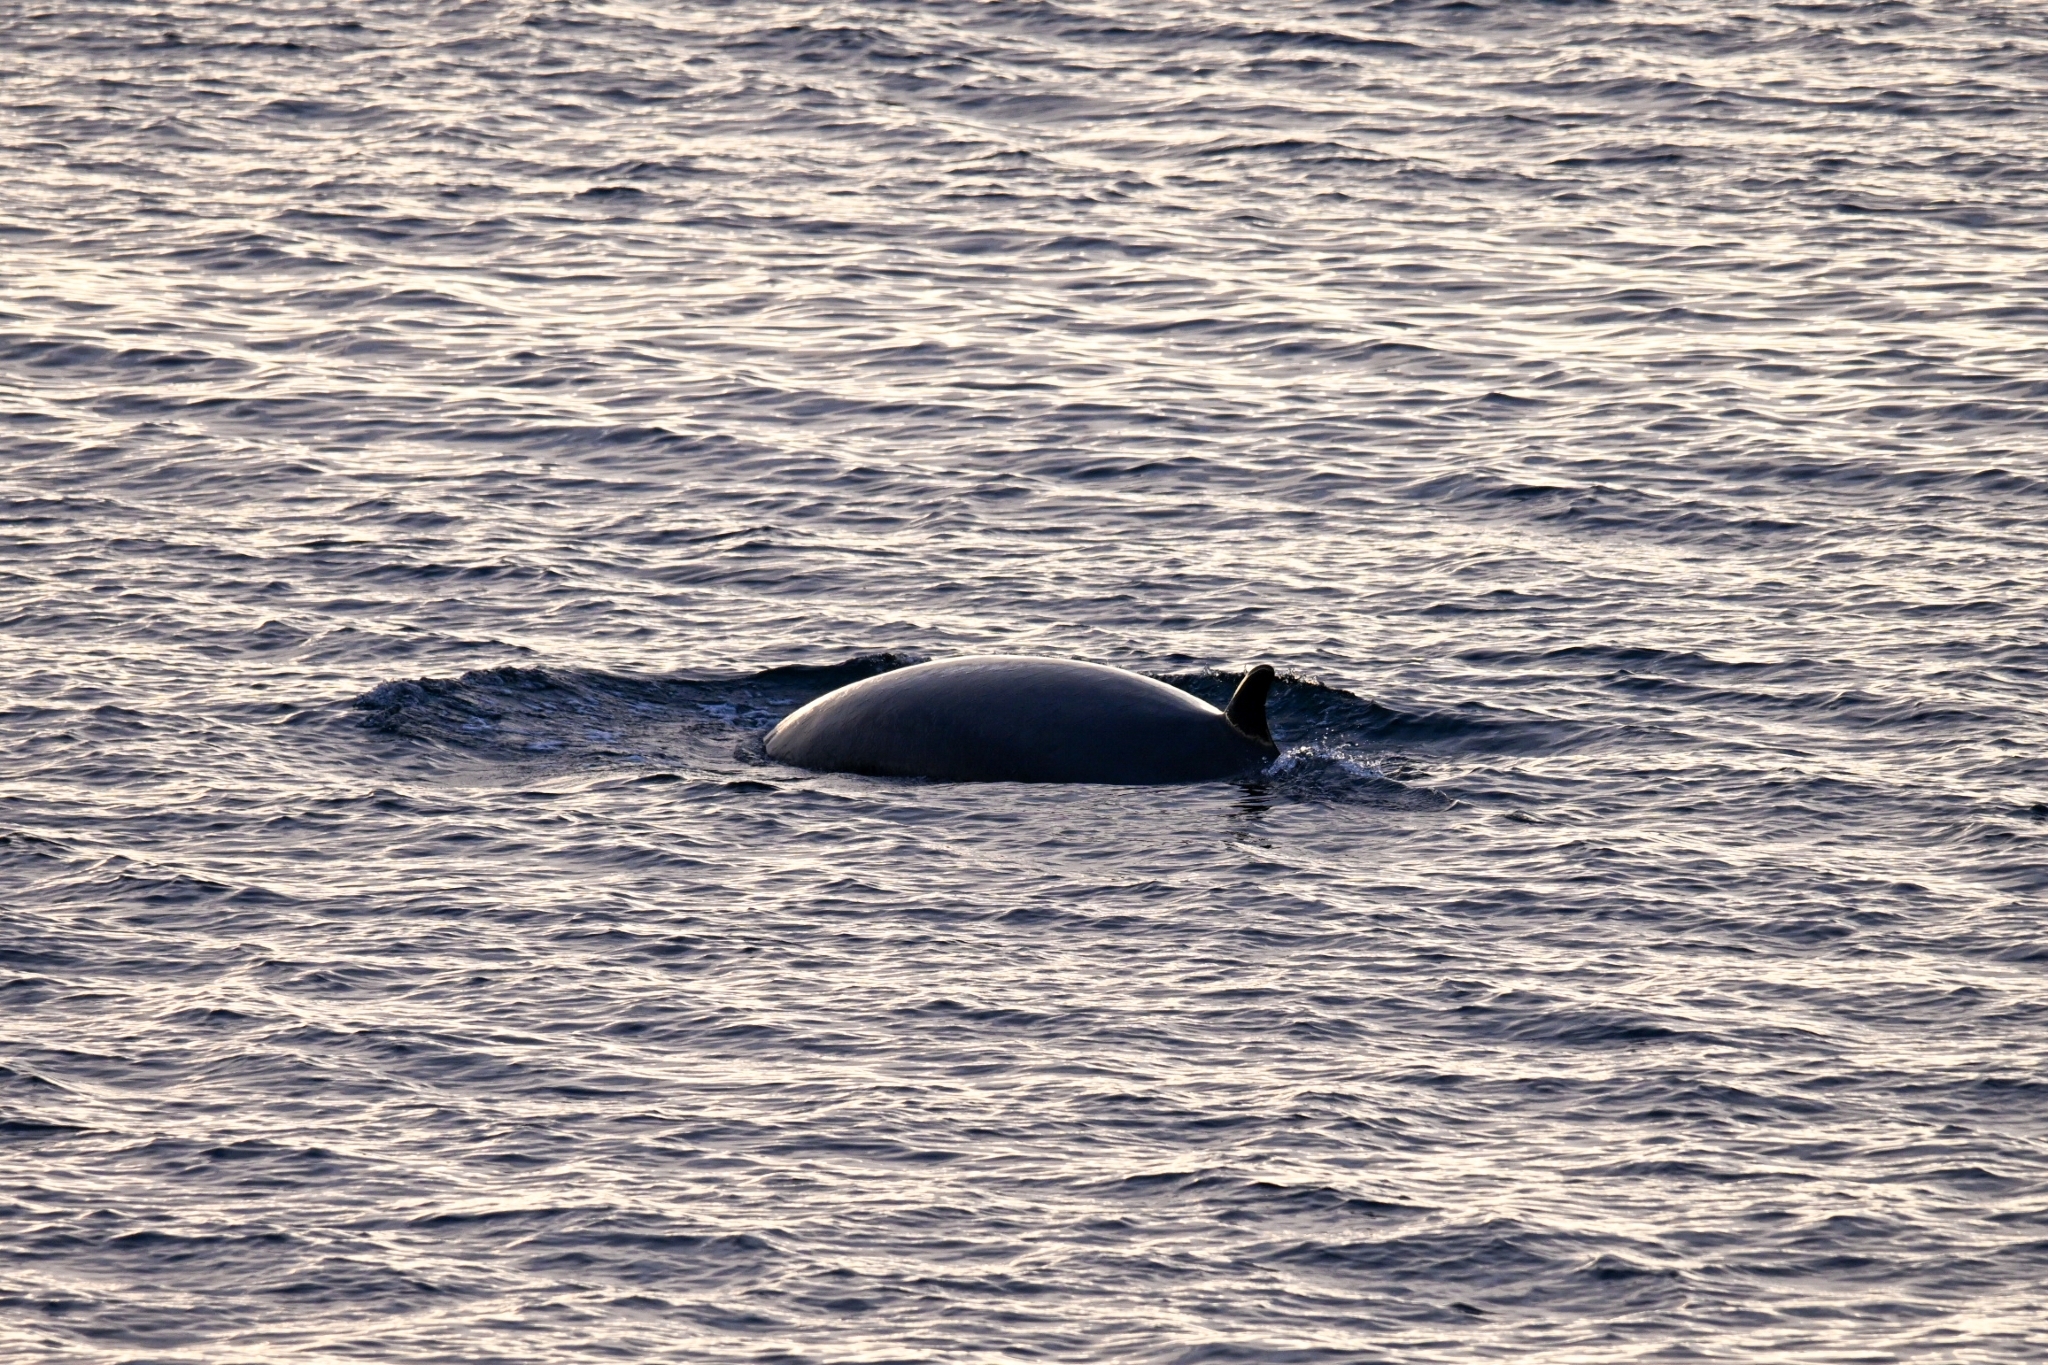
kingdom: Animalia
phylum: Chordata
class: Mammalia
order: Cetacea
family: Balaenopteridae
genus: Balaenoptera
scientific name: Balaenoptera acutorostrata
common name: Common minke whale
